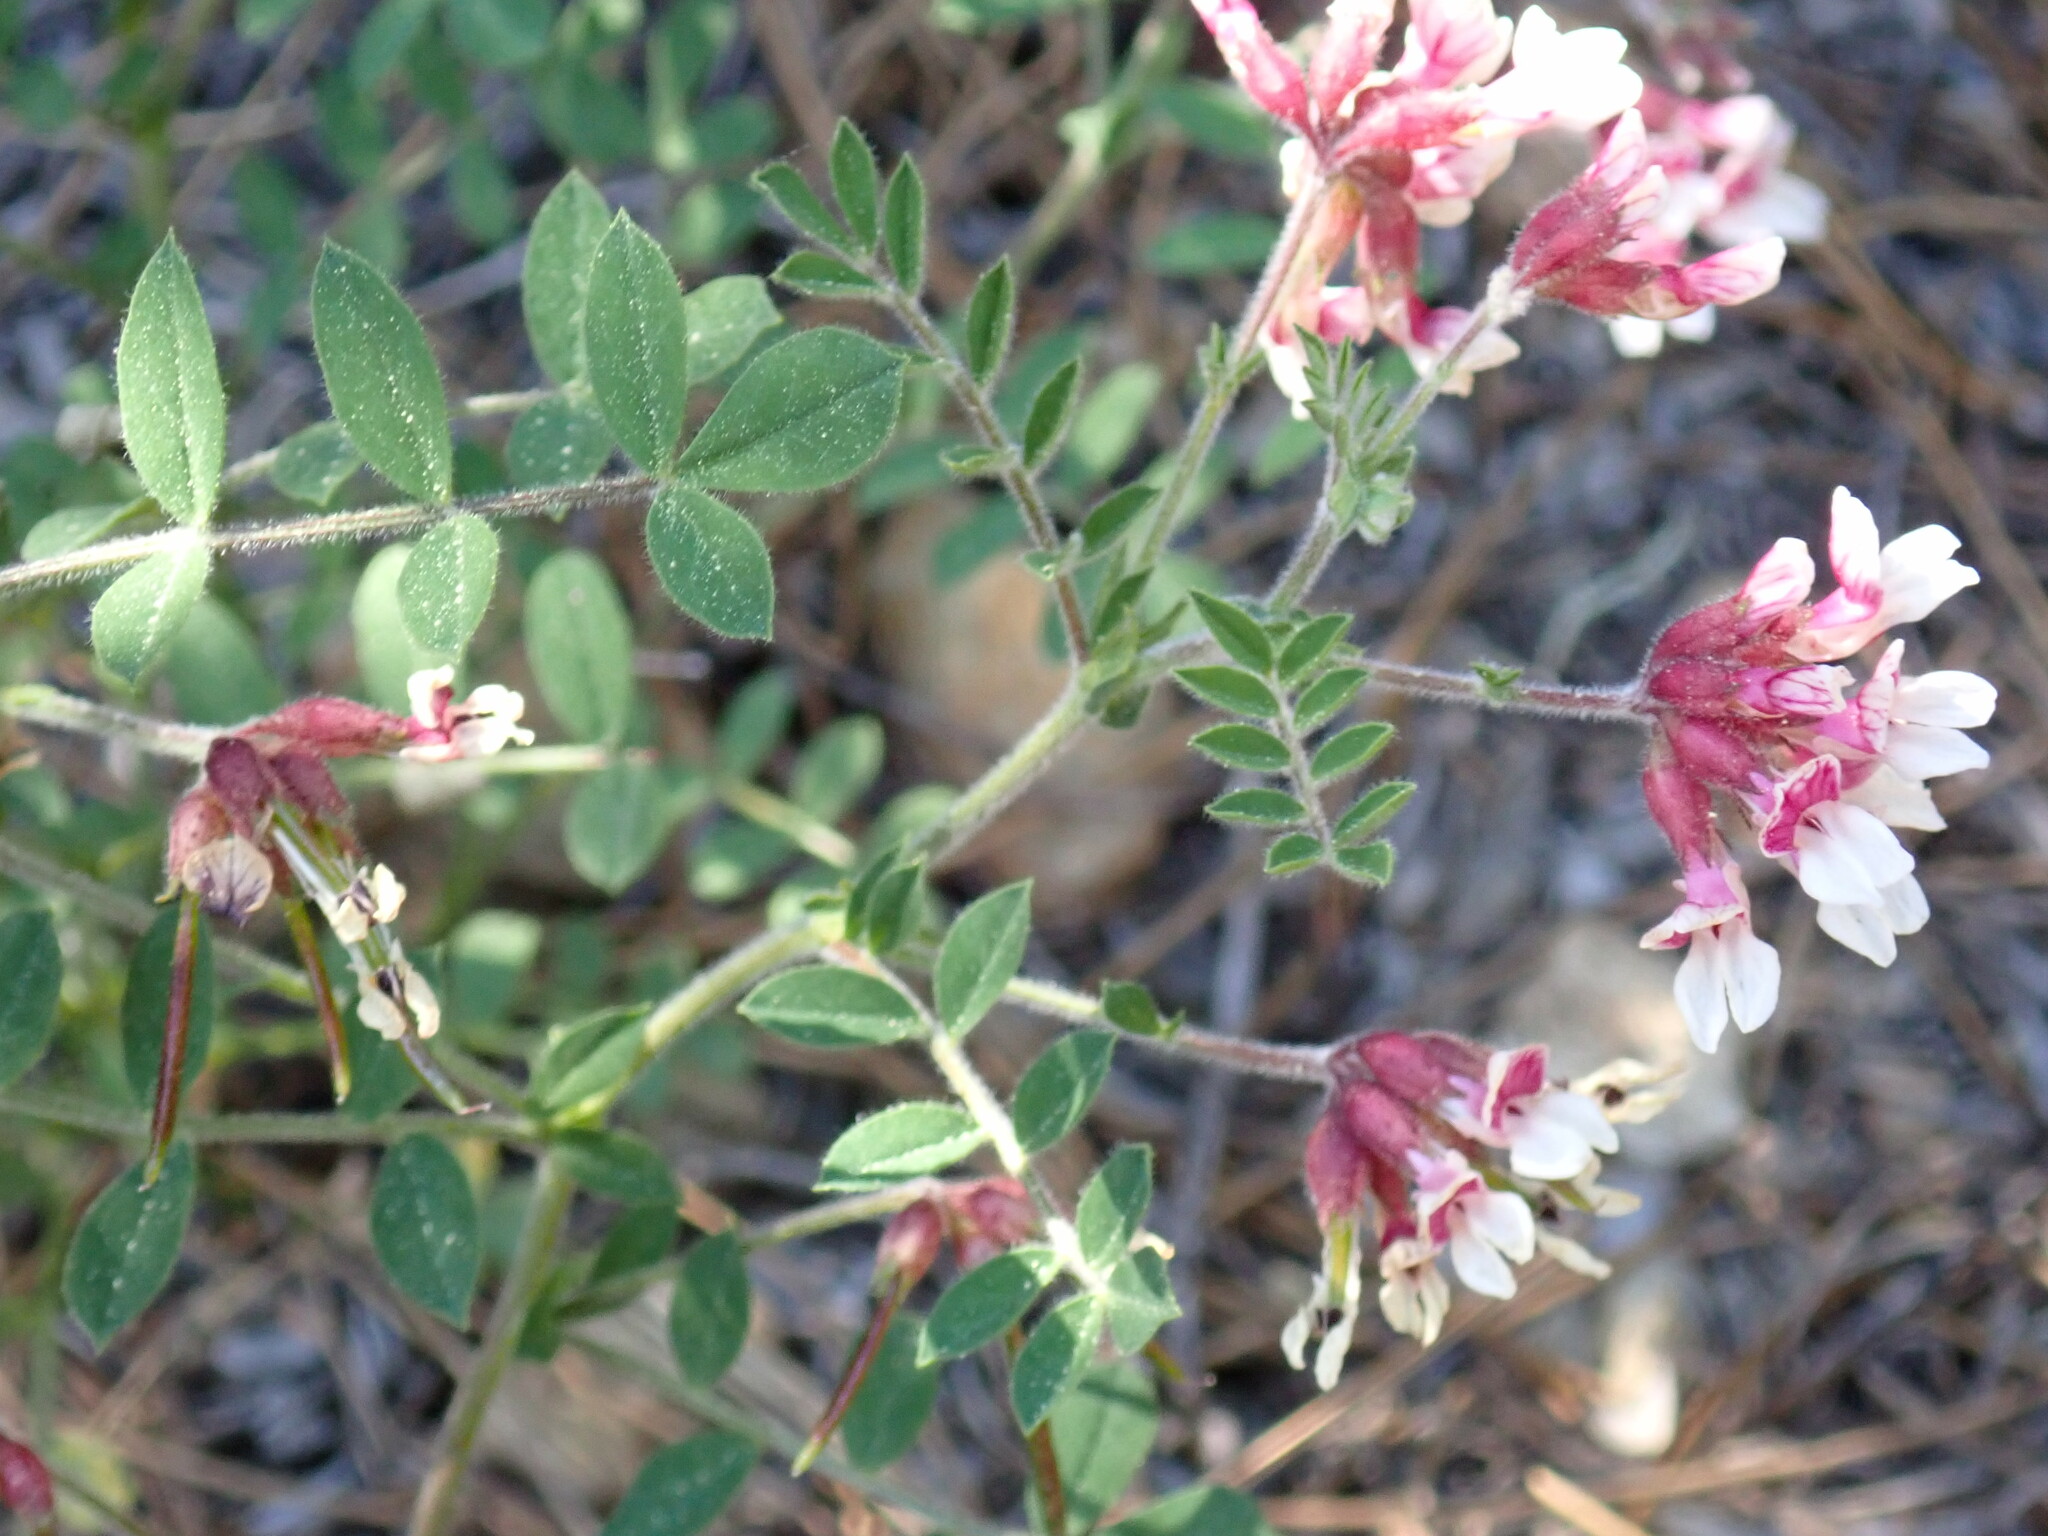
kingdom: Plantae
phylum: Tracheophyta
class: Magnoliopsida
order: Fabales
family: Fabaceae
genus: Hosackia
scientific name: Hosackia stipularis
